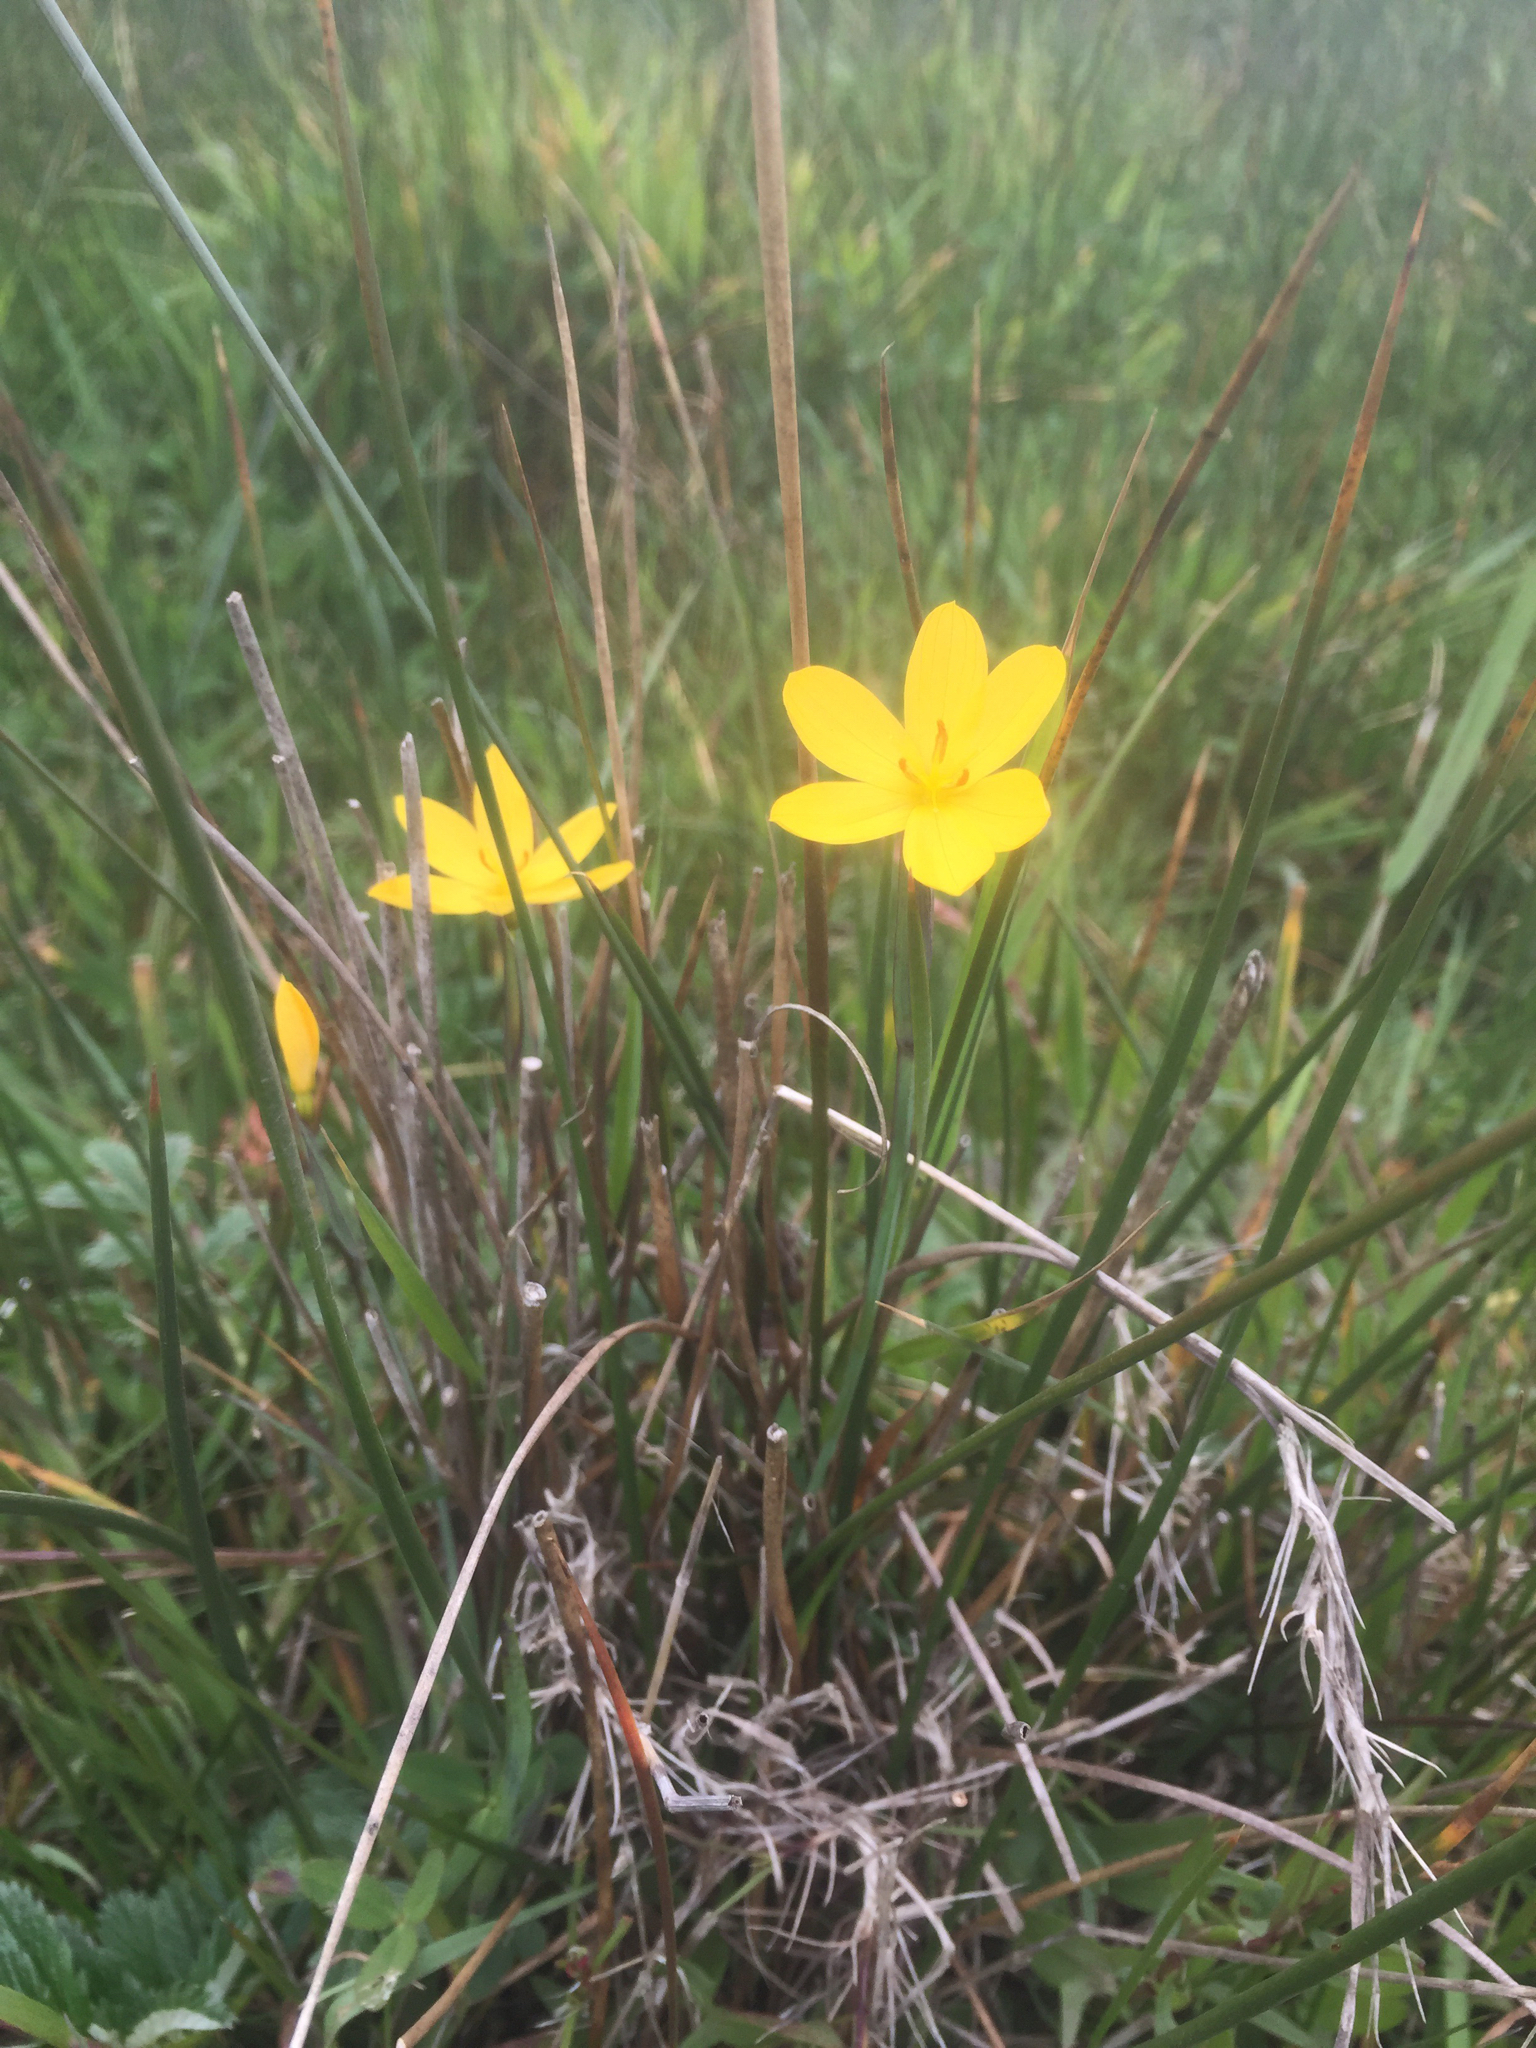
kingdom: Plantae
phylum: Tracheophyta
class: Liliopsida
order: Asparagales
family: Iridaceae
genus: Sisyrinchium
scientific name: Sisyrinchium californicum
